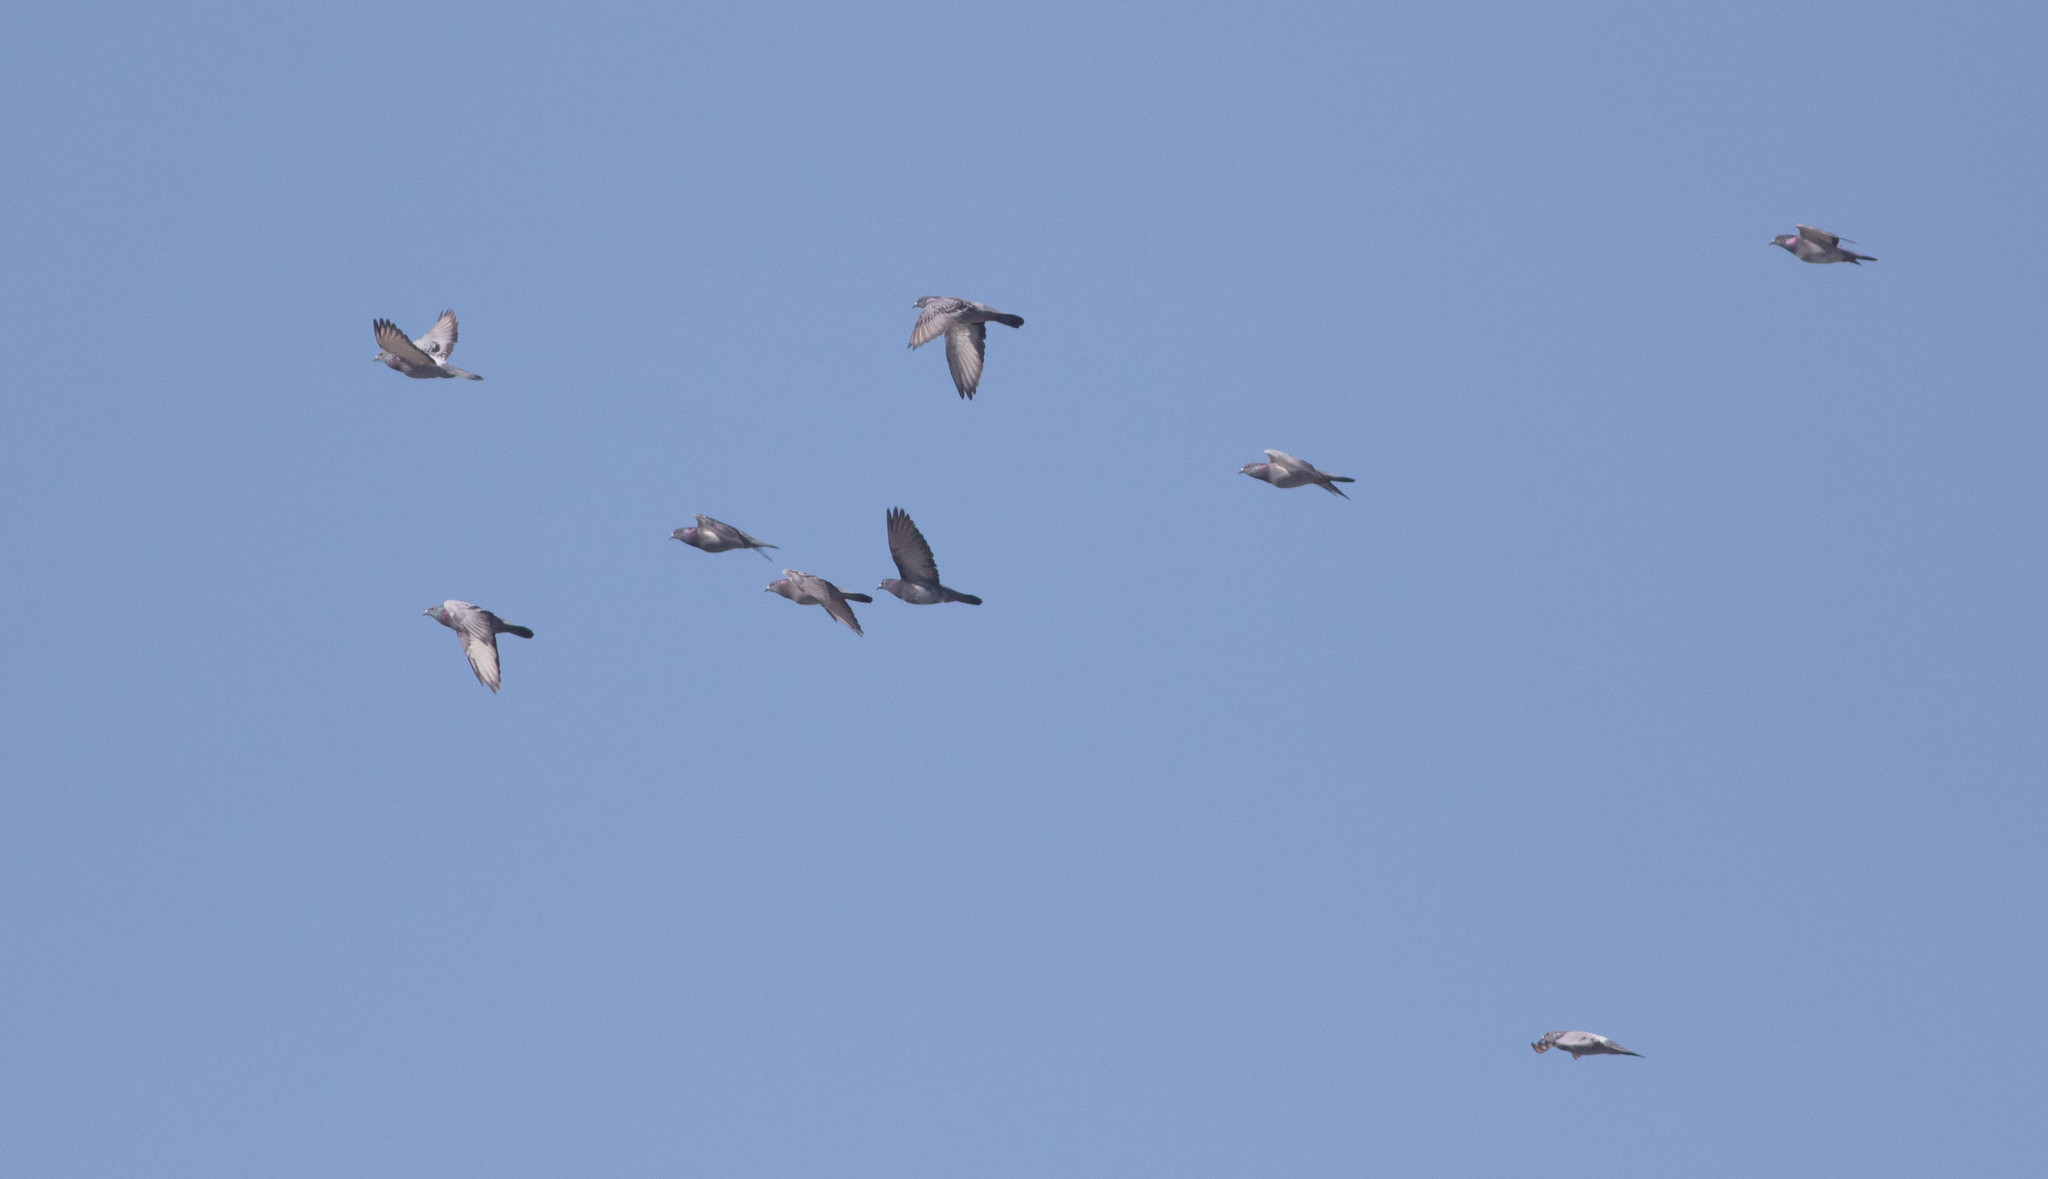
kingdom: Animalia
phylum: Chordata
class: Aves
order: Columbiformes
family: Columbidae
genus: Columba
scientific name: Columba livia
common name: Rock pigeon
